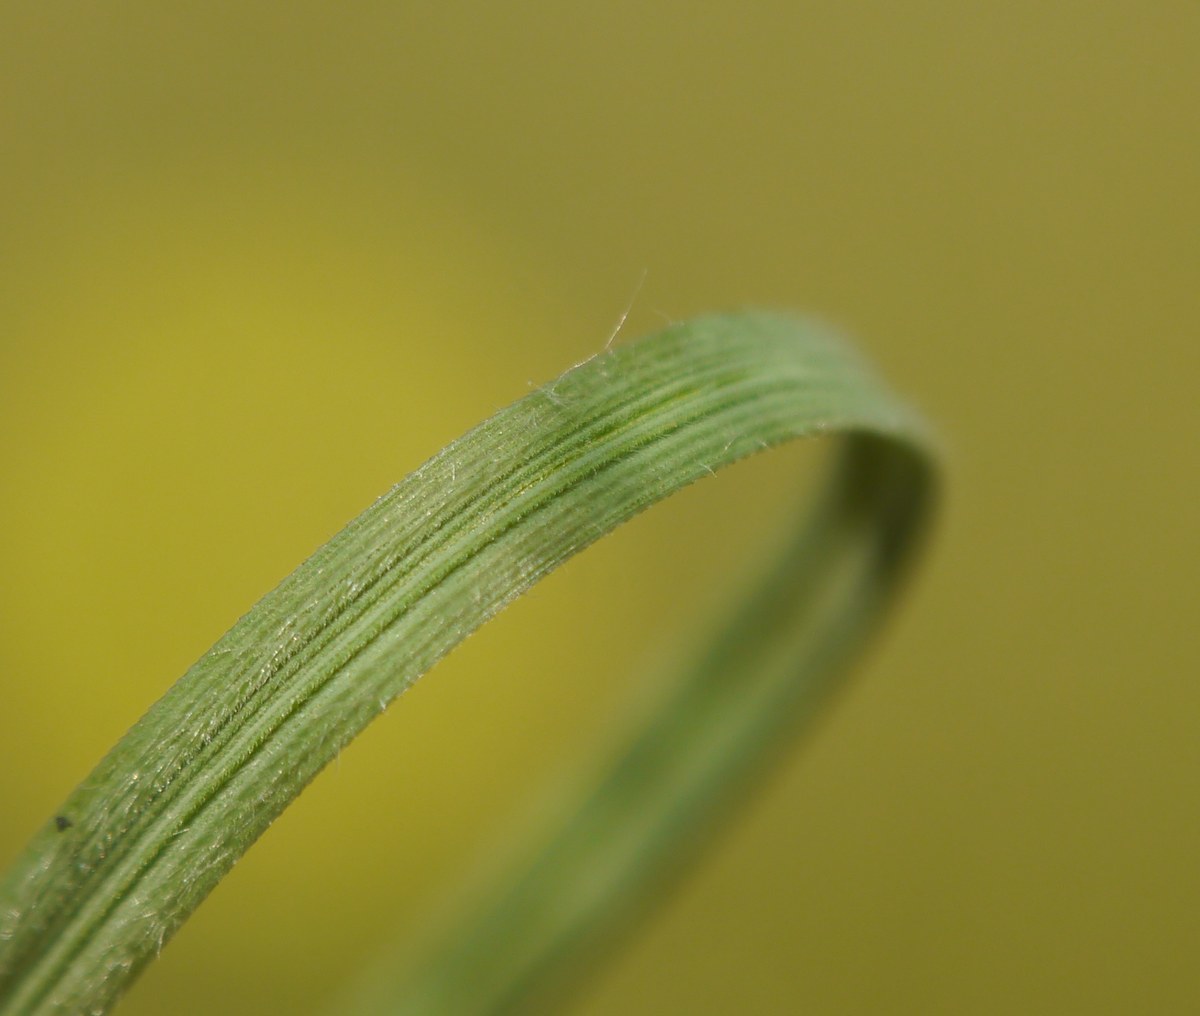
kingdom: Plantae
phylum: Tracheophyta
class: Liliopsida
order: Poales
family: Poaceae
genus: Stipa
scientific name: Stipa dasyphylla
